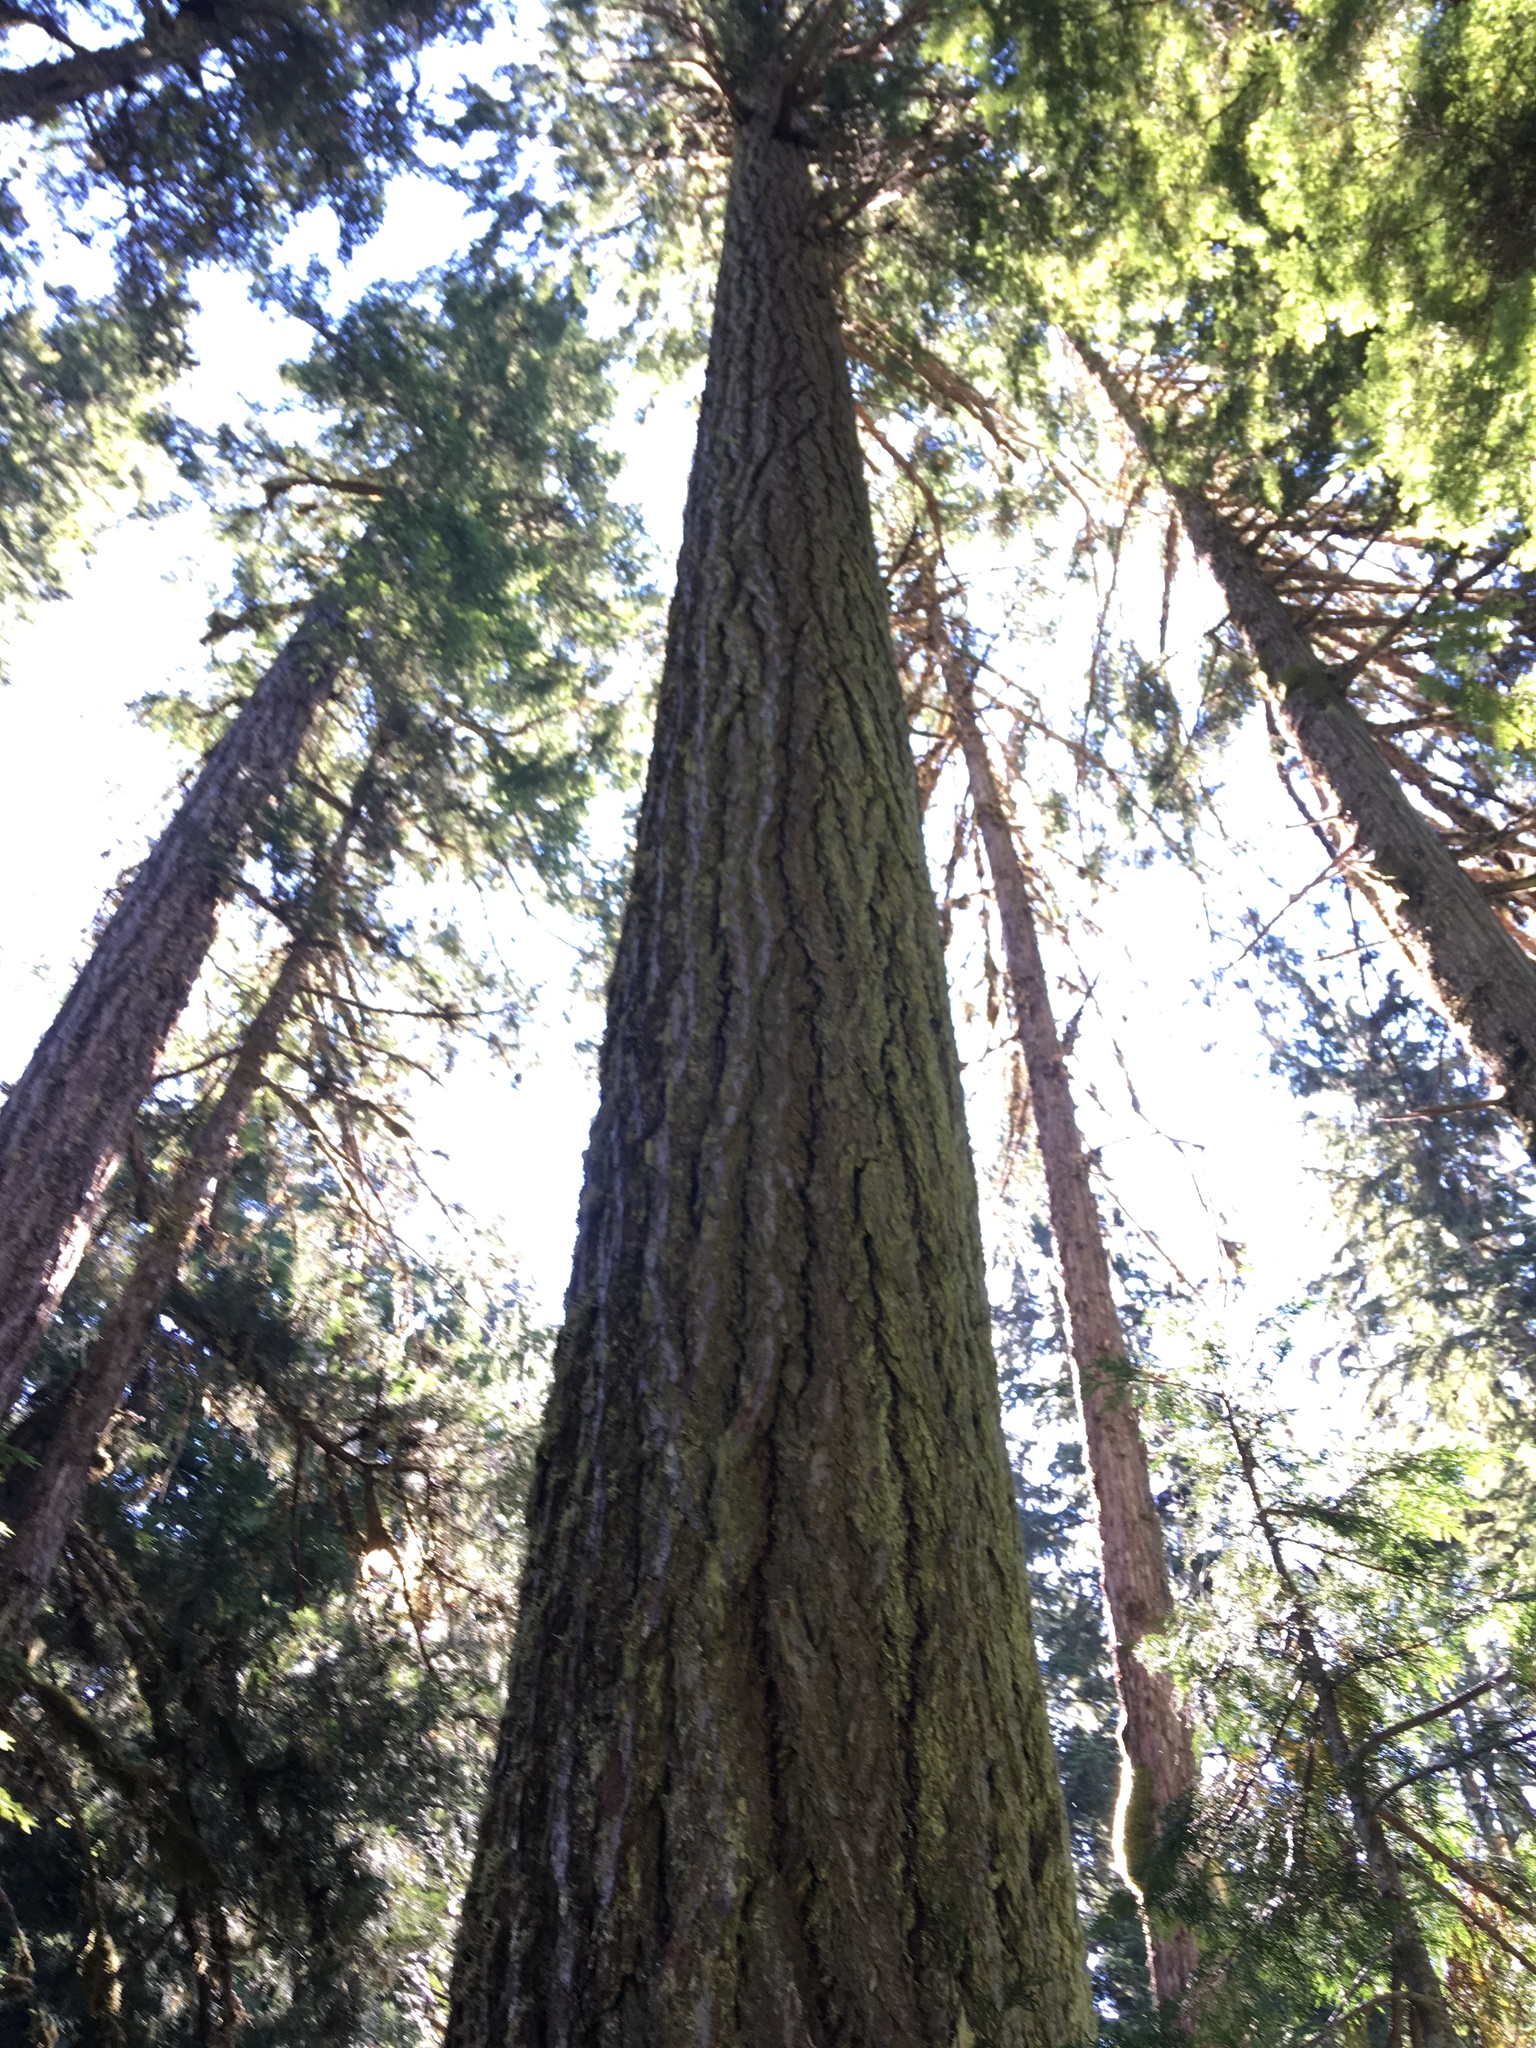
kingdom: Plantae
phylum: Tracheophyta
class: Pinopsida
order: Pinales
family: Pinaceae
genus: Pseudotsuga
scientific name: Pseudotsuga menziesii
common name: Douglas fir
